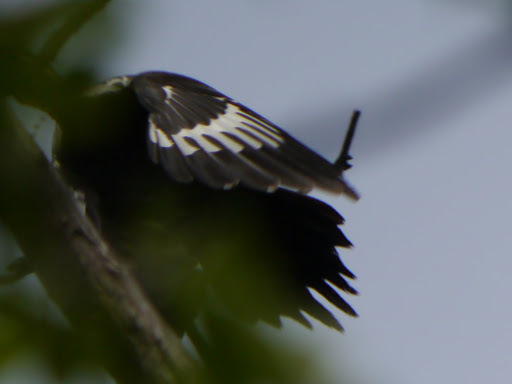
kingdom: Animalia
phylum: Chordata
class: Aves
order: Piciformes
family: Picidae
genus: Dryocopus
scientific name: Dryocopus pileatus
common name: Pileated woodpecker
